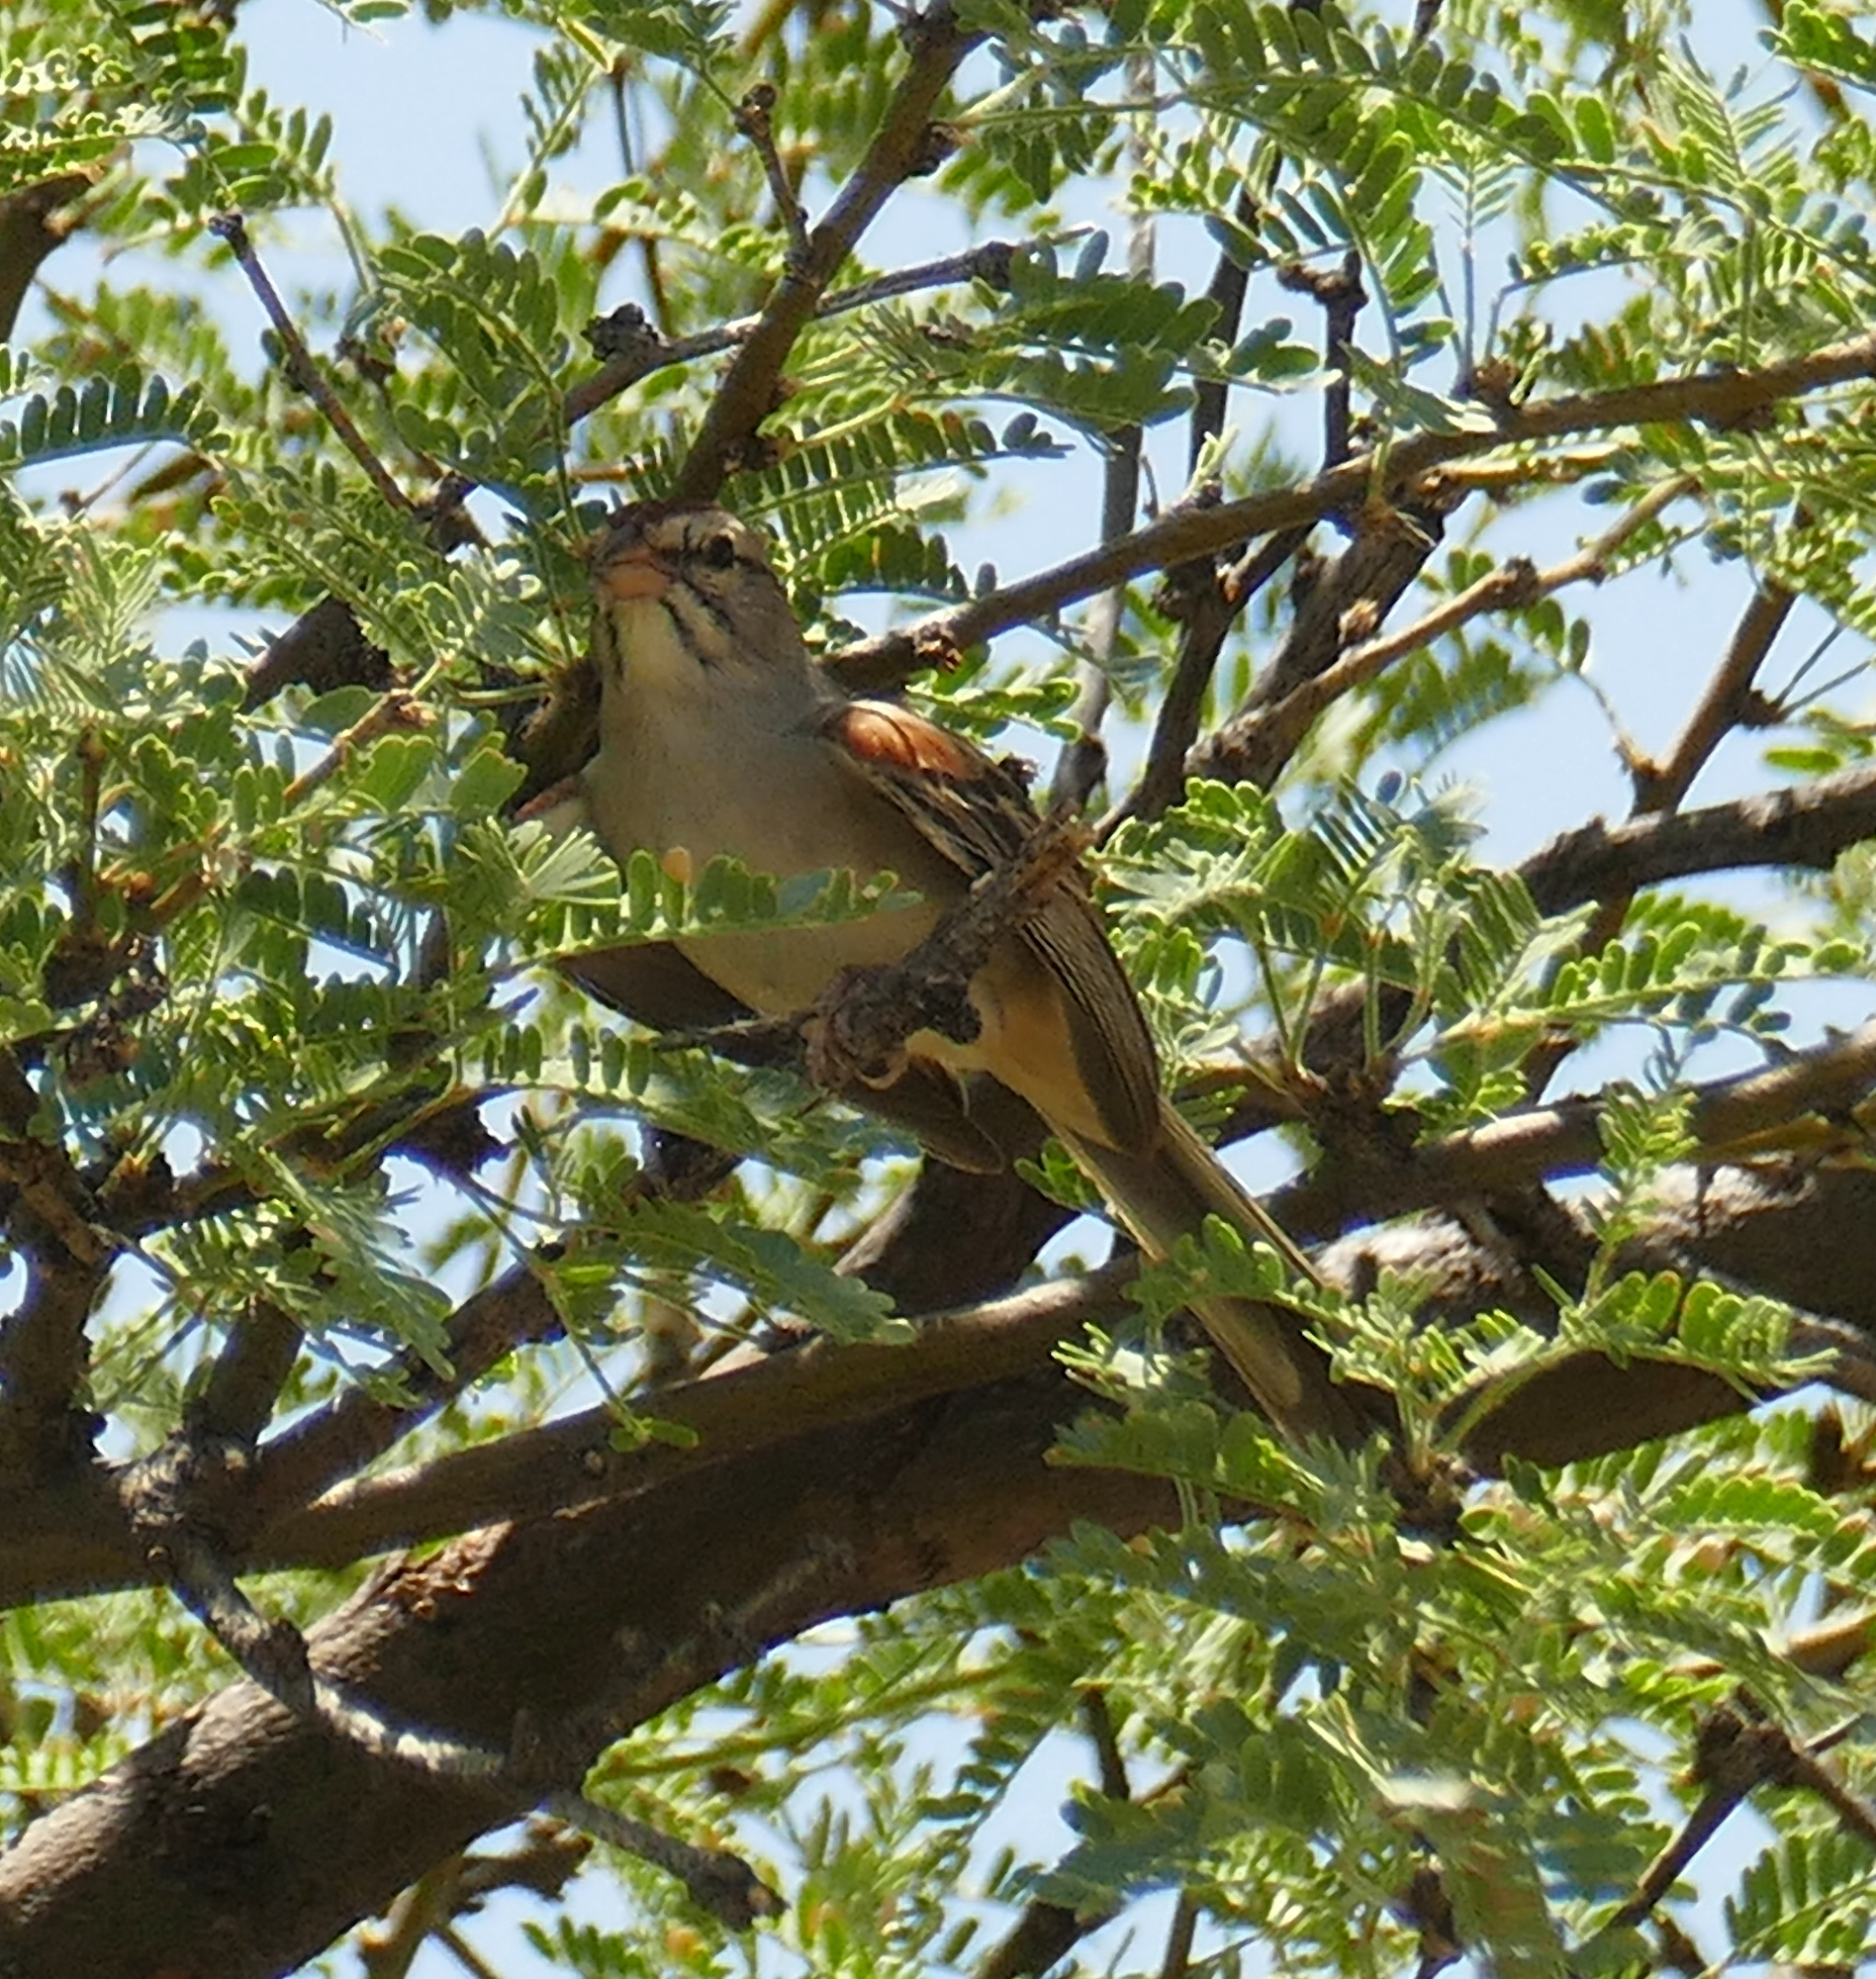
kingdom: Animalia
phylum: Chordata
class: Aves
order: Passeriformes
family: Passerellidae
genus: Peucaea
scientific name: Peucaea carpalis
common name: Rufous-winged sparrow
